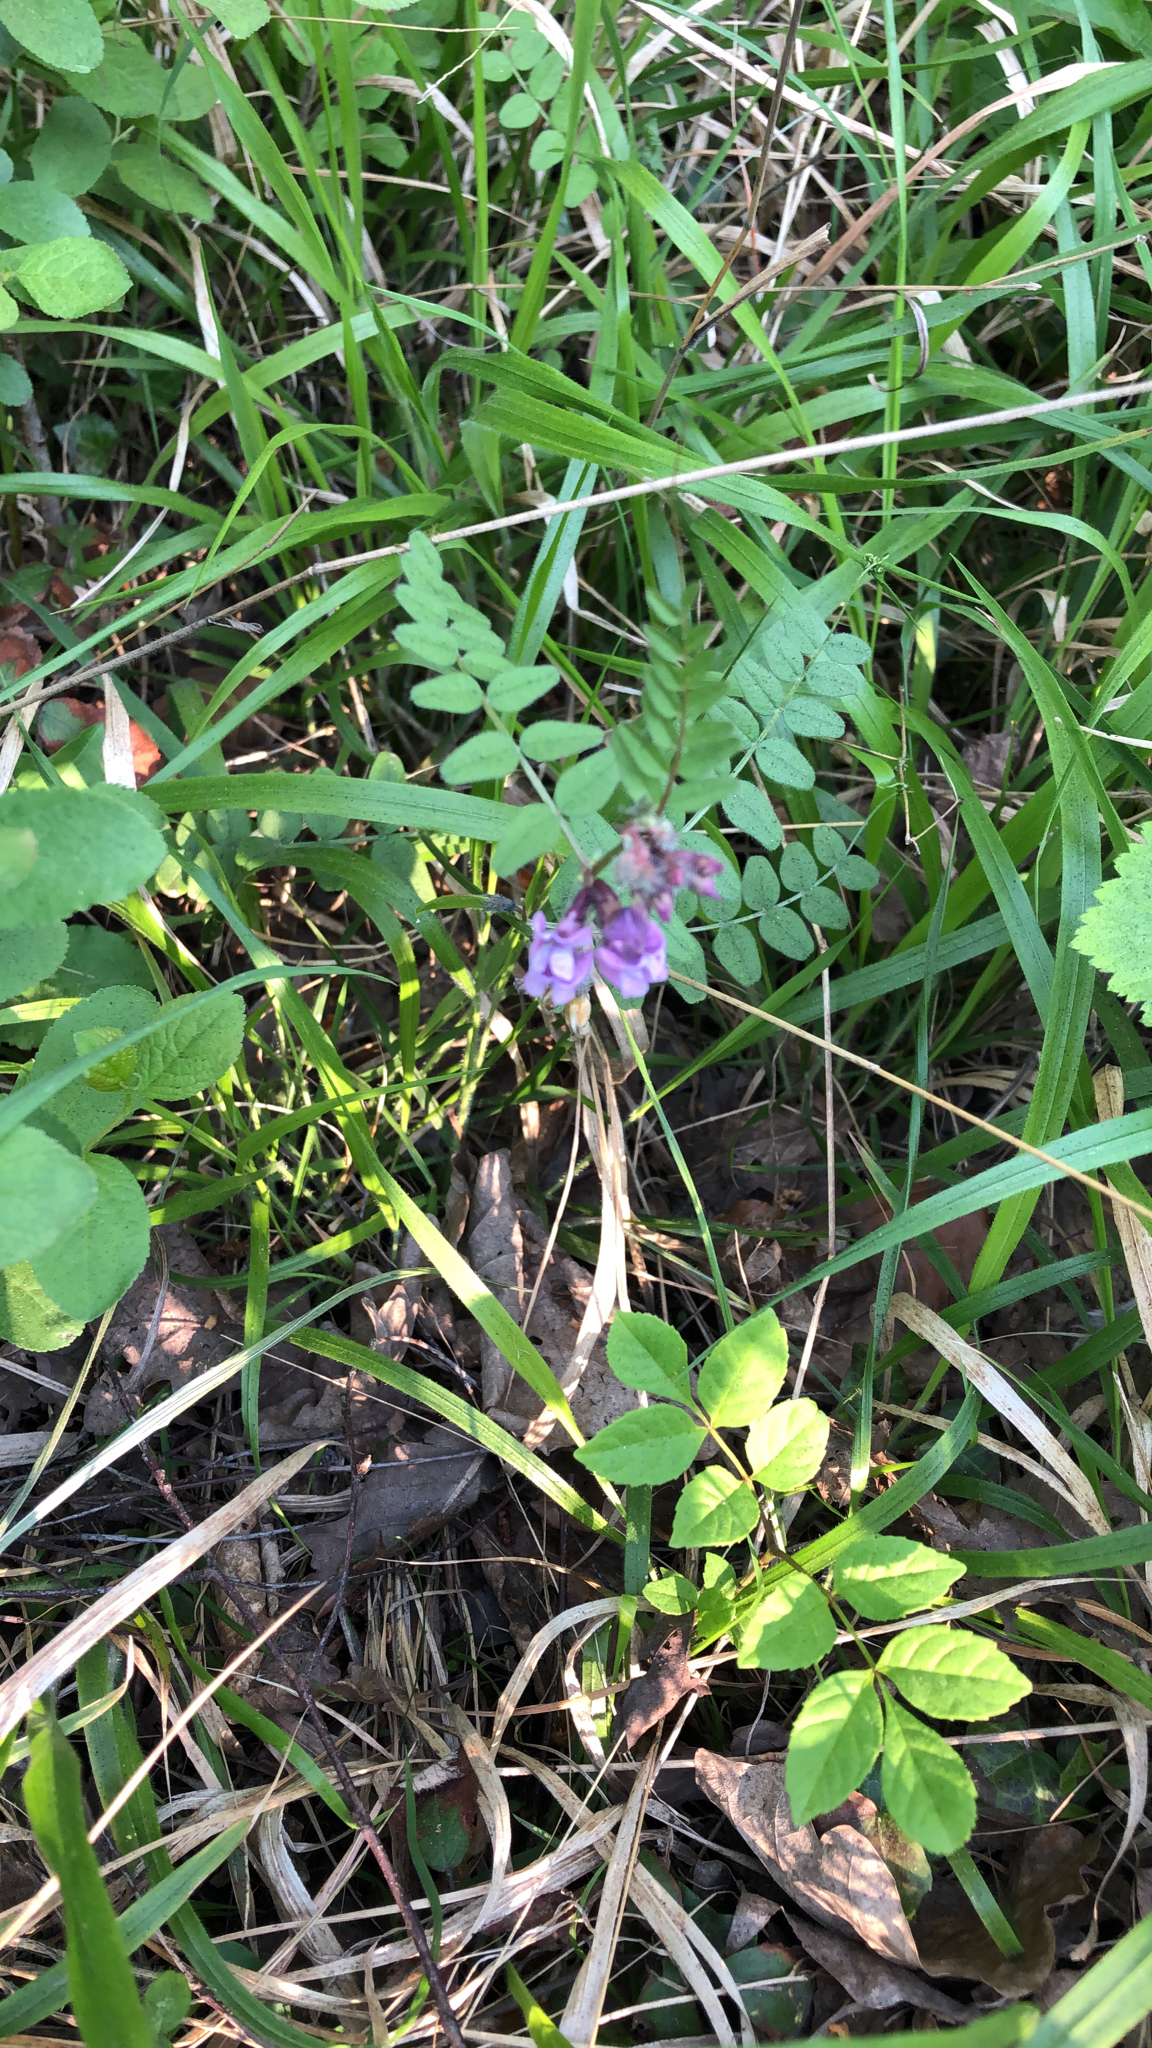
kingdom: Plantae
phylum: Tracheophyta
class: Magnoliopsida
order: Fabales
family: Fabaceae
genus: Vicia
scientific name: Vicia sepium
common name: Bush vetch
